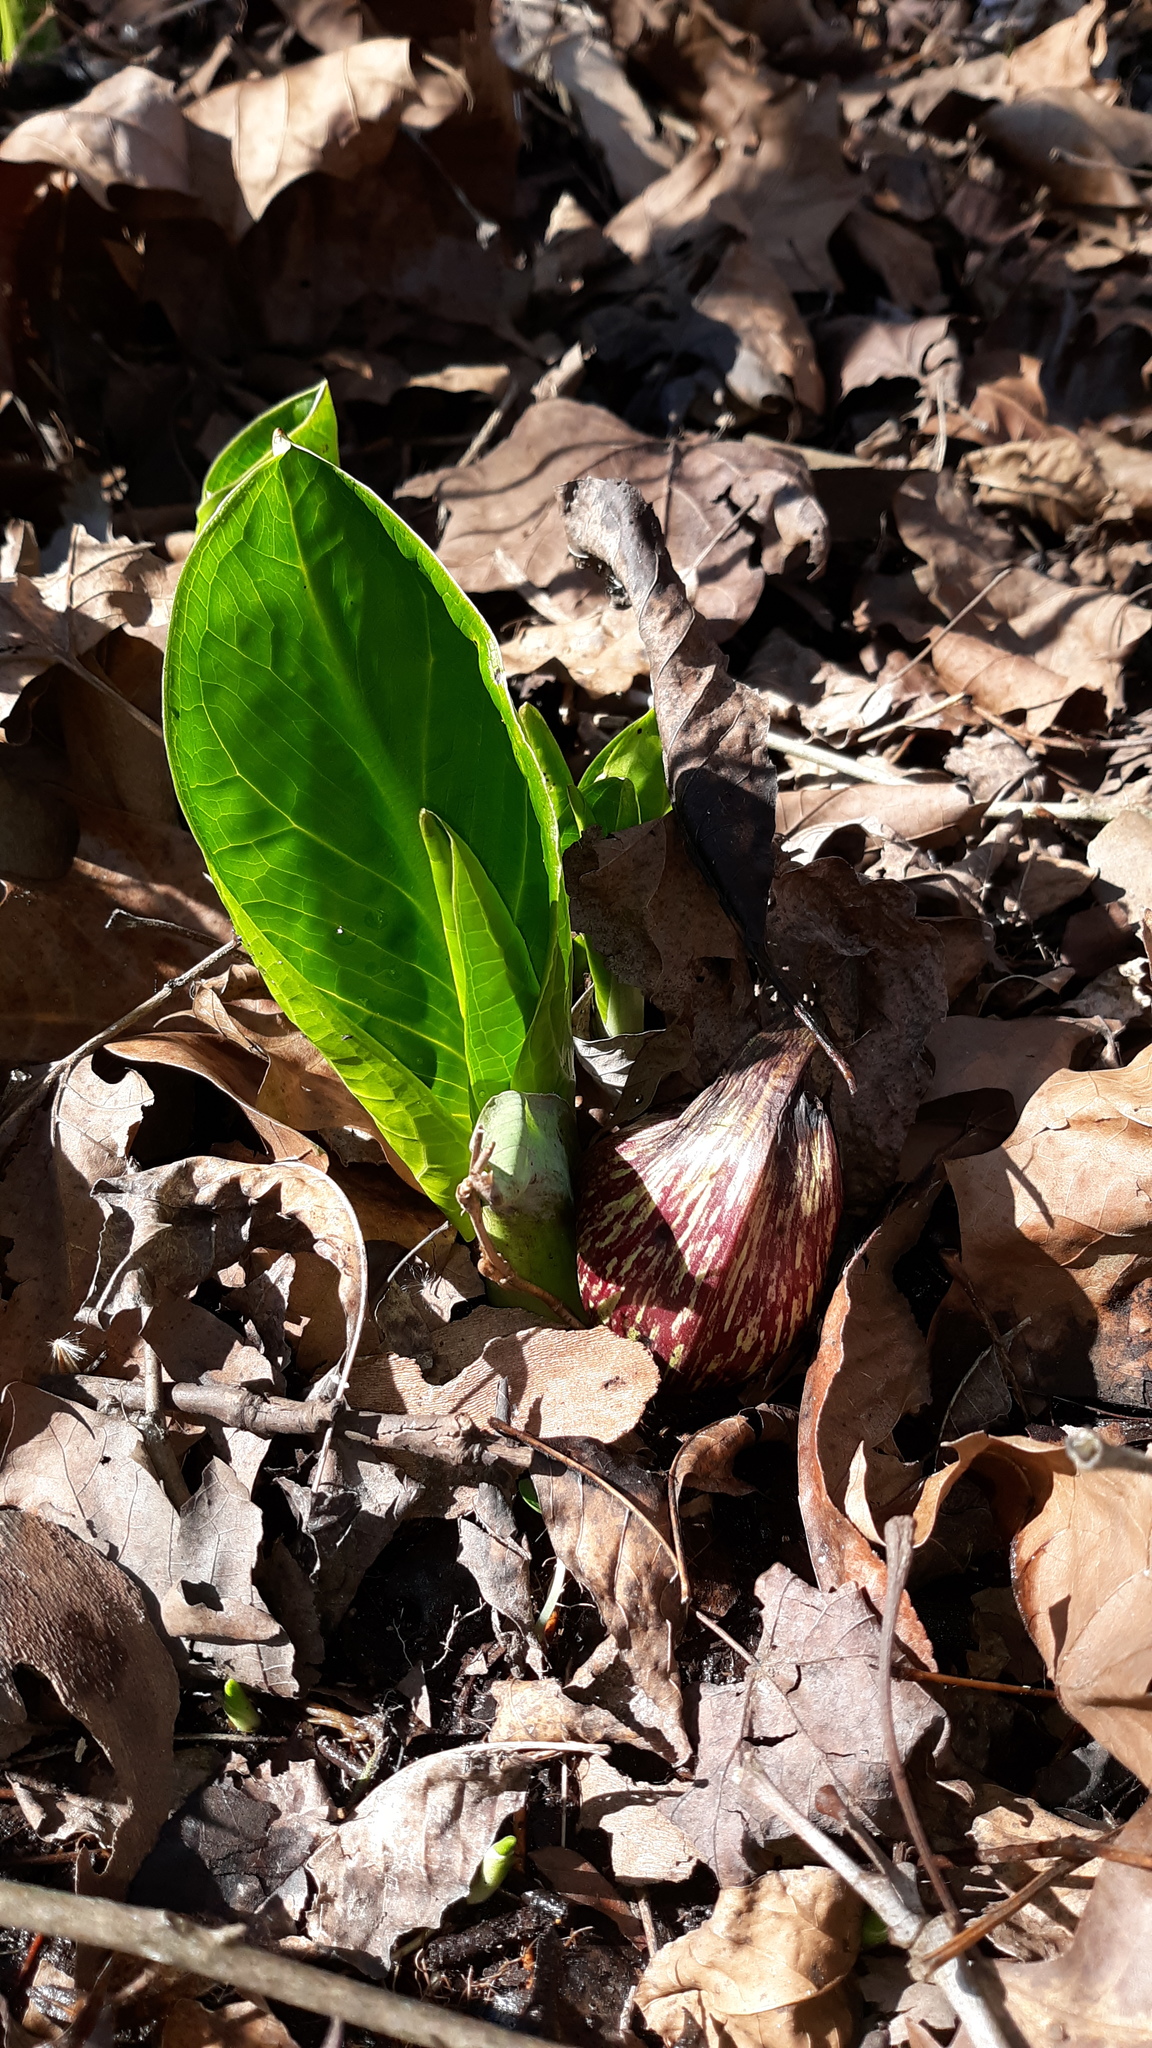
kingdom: Plantae
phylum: Tracheophyta
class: Liliopsida
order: Alismatales
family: Araceae
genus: Symplocarpus
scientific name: Symplocarpus foetidus
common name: Eastern skunk cabbage
